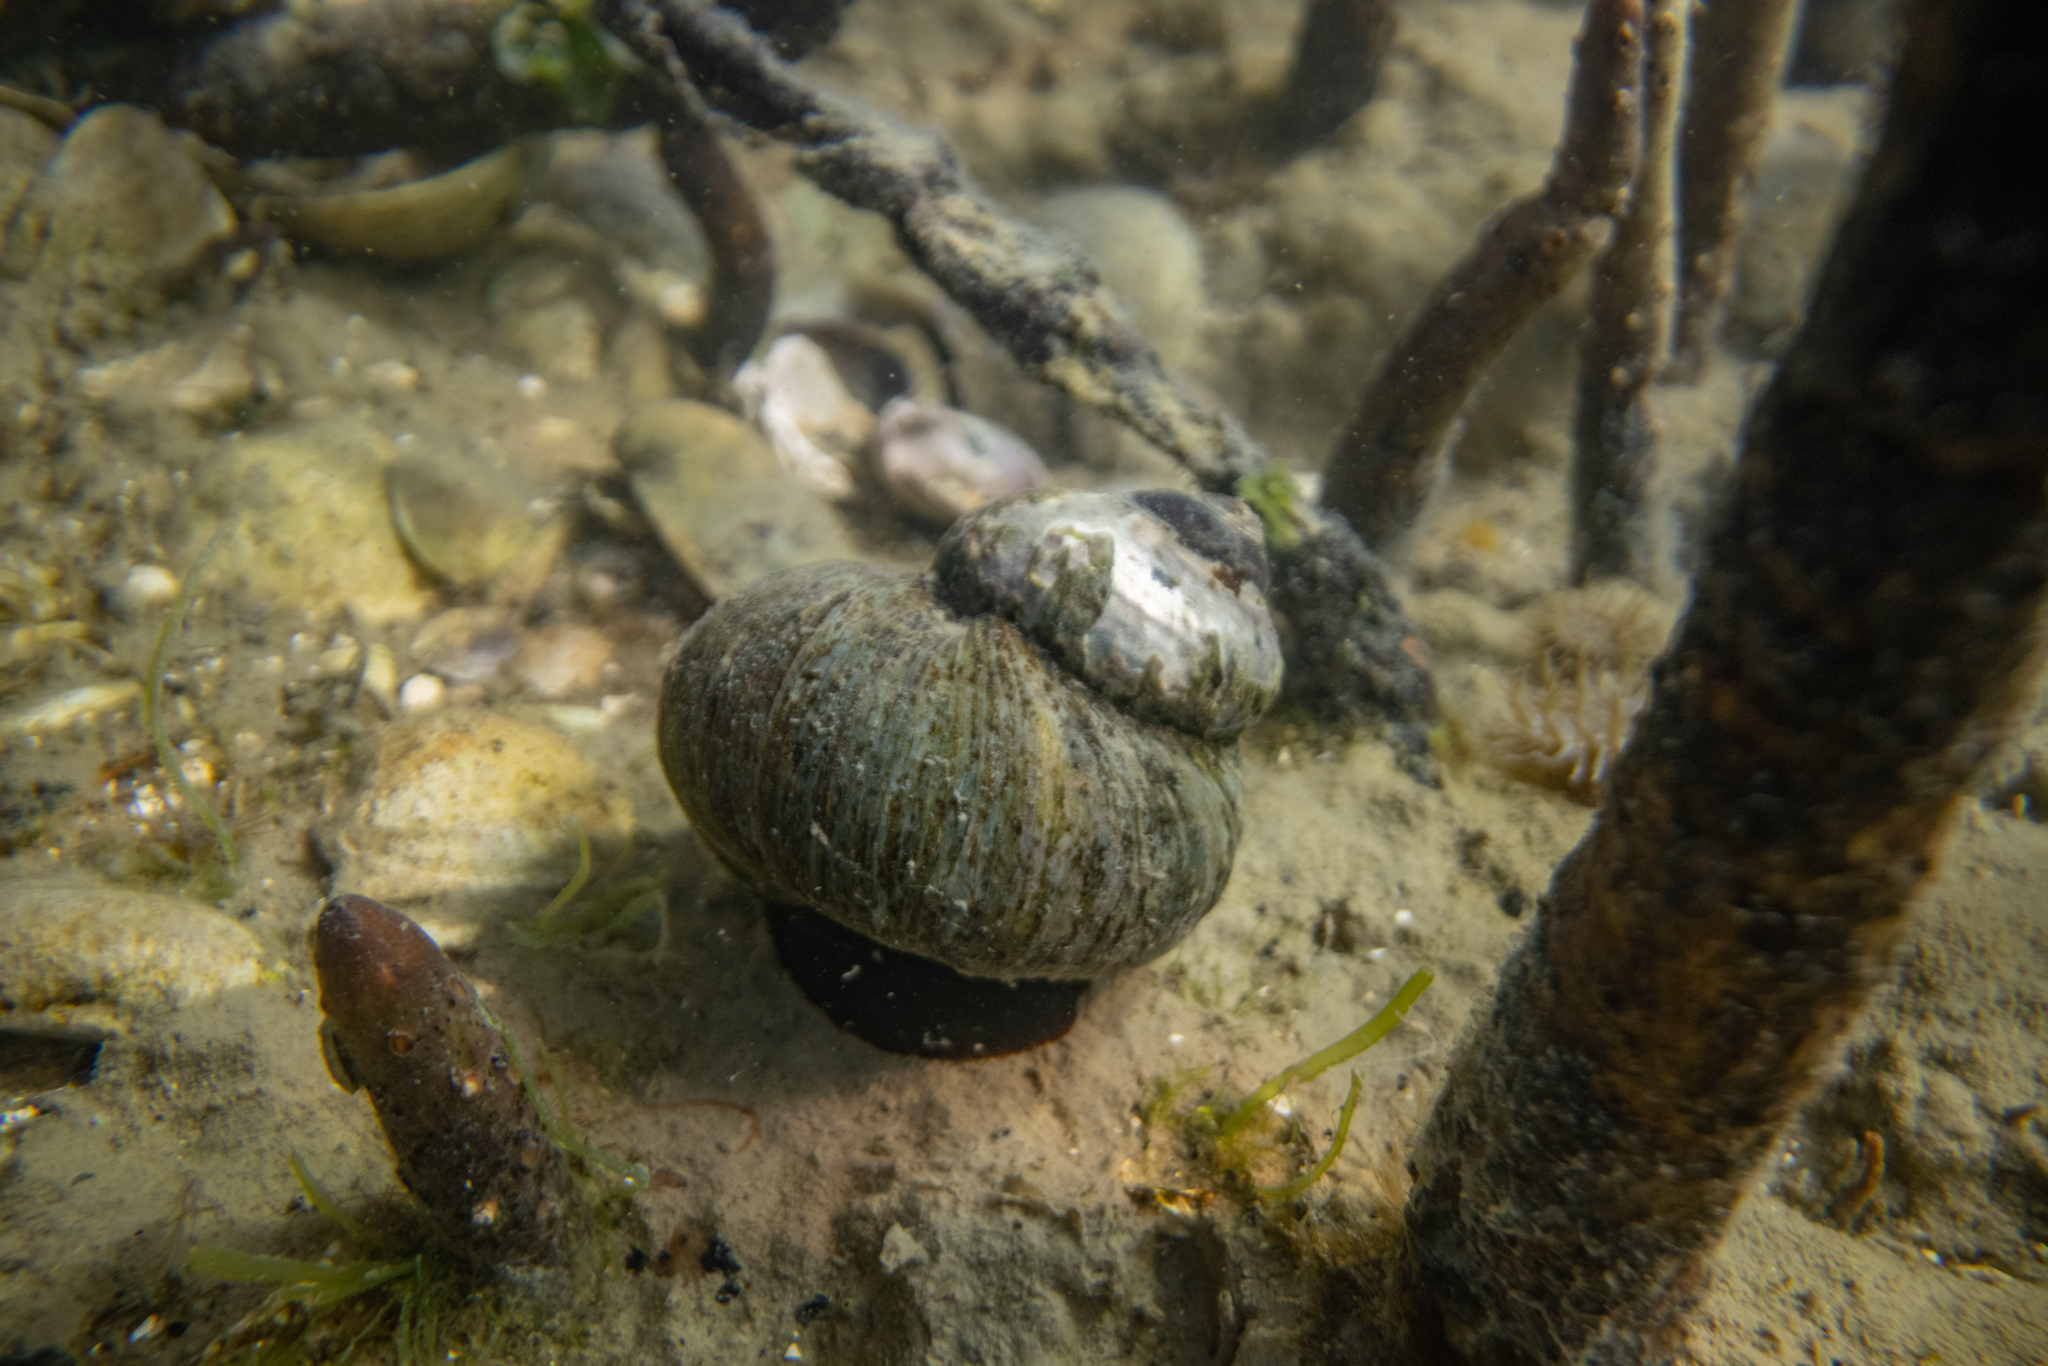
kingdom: Animalia
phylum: Mollusca
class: Gastropoda
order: Trochida
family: Turbinidae
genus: Lunella
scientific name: Lunella smaragda
